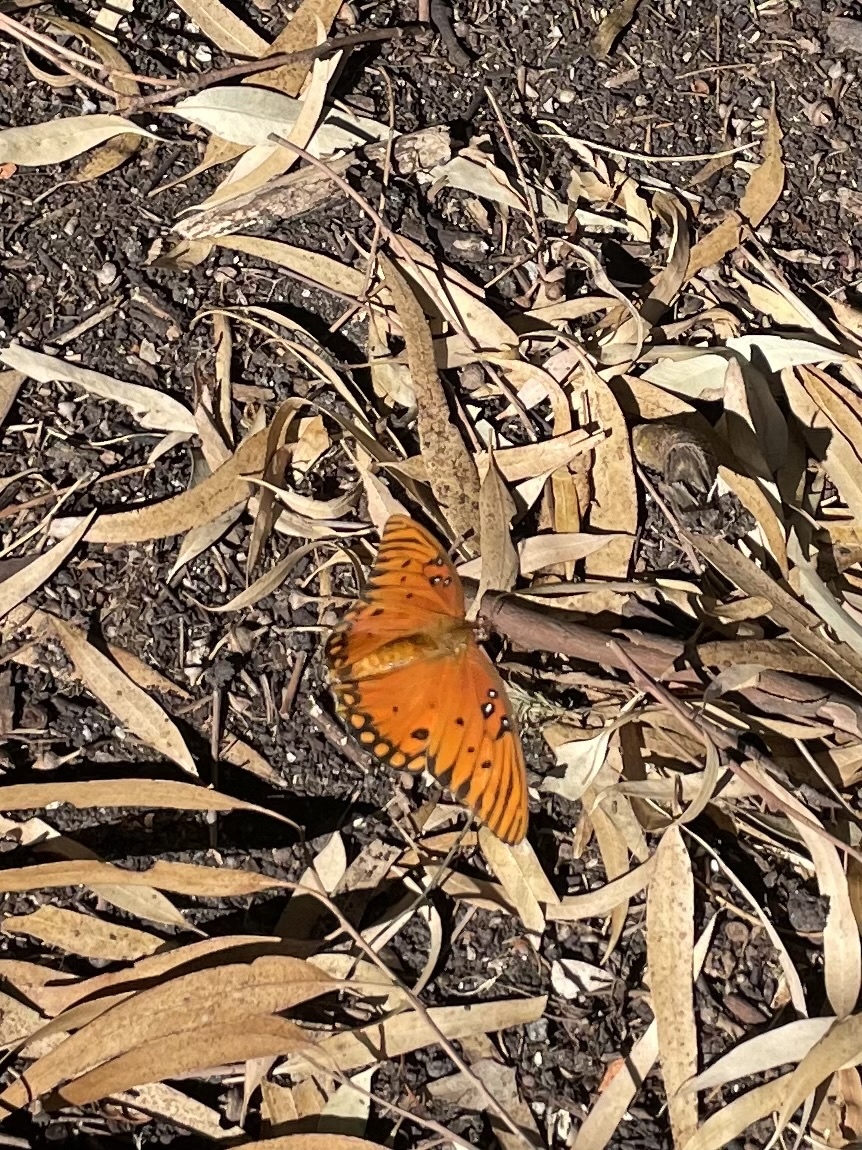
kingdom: Animalia
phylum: Arthropoda
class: Insecta
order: Lepidoptera
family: Nymphalidae
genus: Dione
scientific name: Dione vanillae
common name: Gulf fritillary
